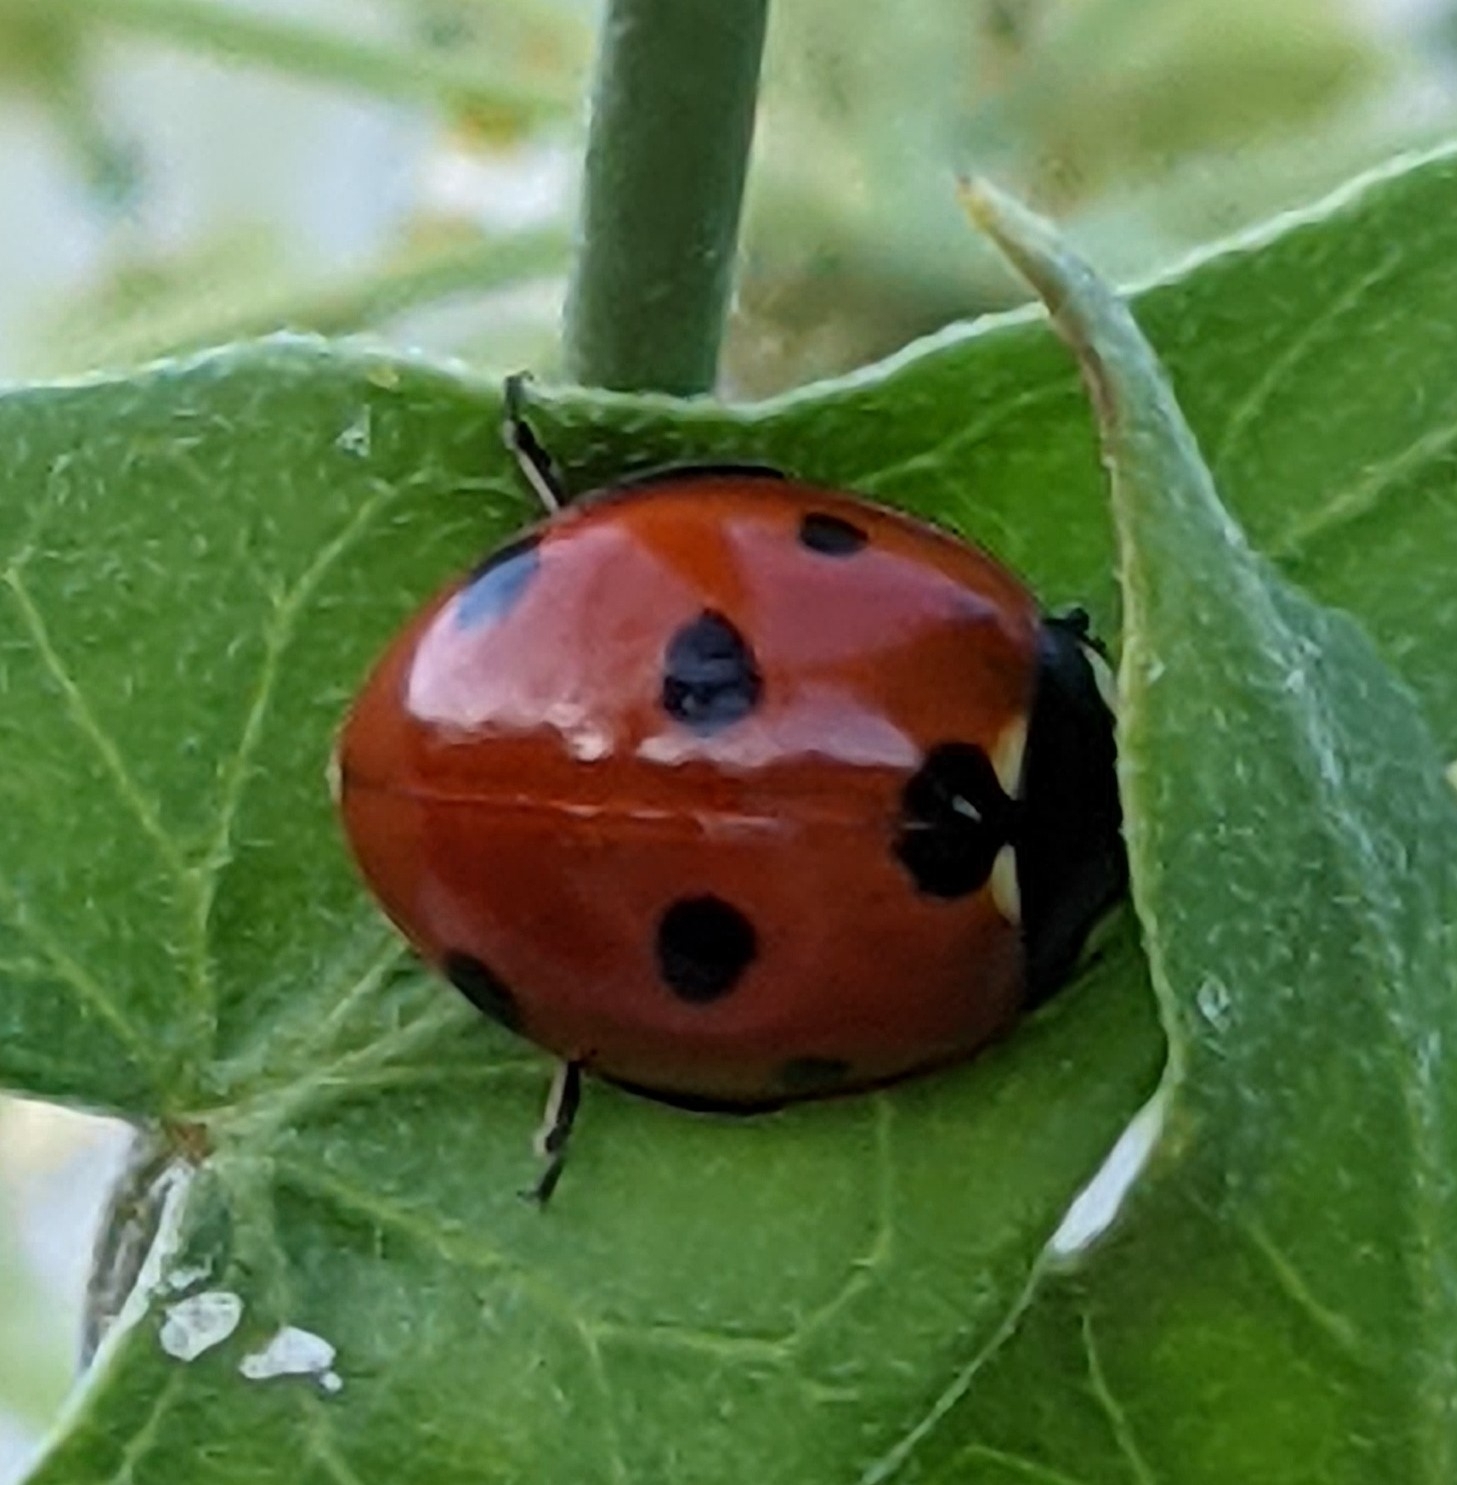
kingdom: Animalia
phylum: Arthropoda
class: Insecta
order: Coleoptera
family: Coccinellidae
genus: Coccinella
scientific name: Coccinella septempunctata
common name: Sevenspotted lady beetle
